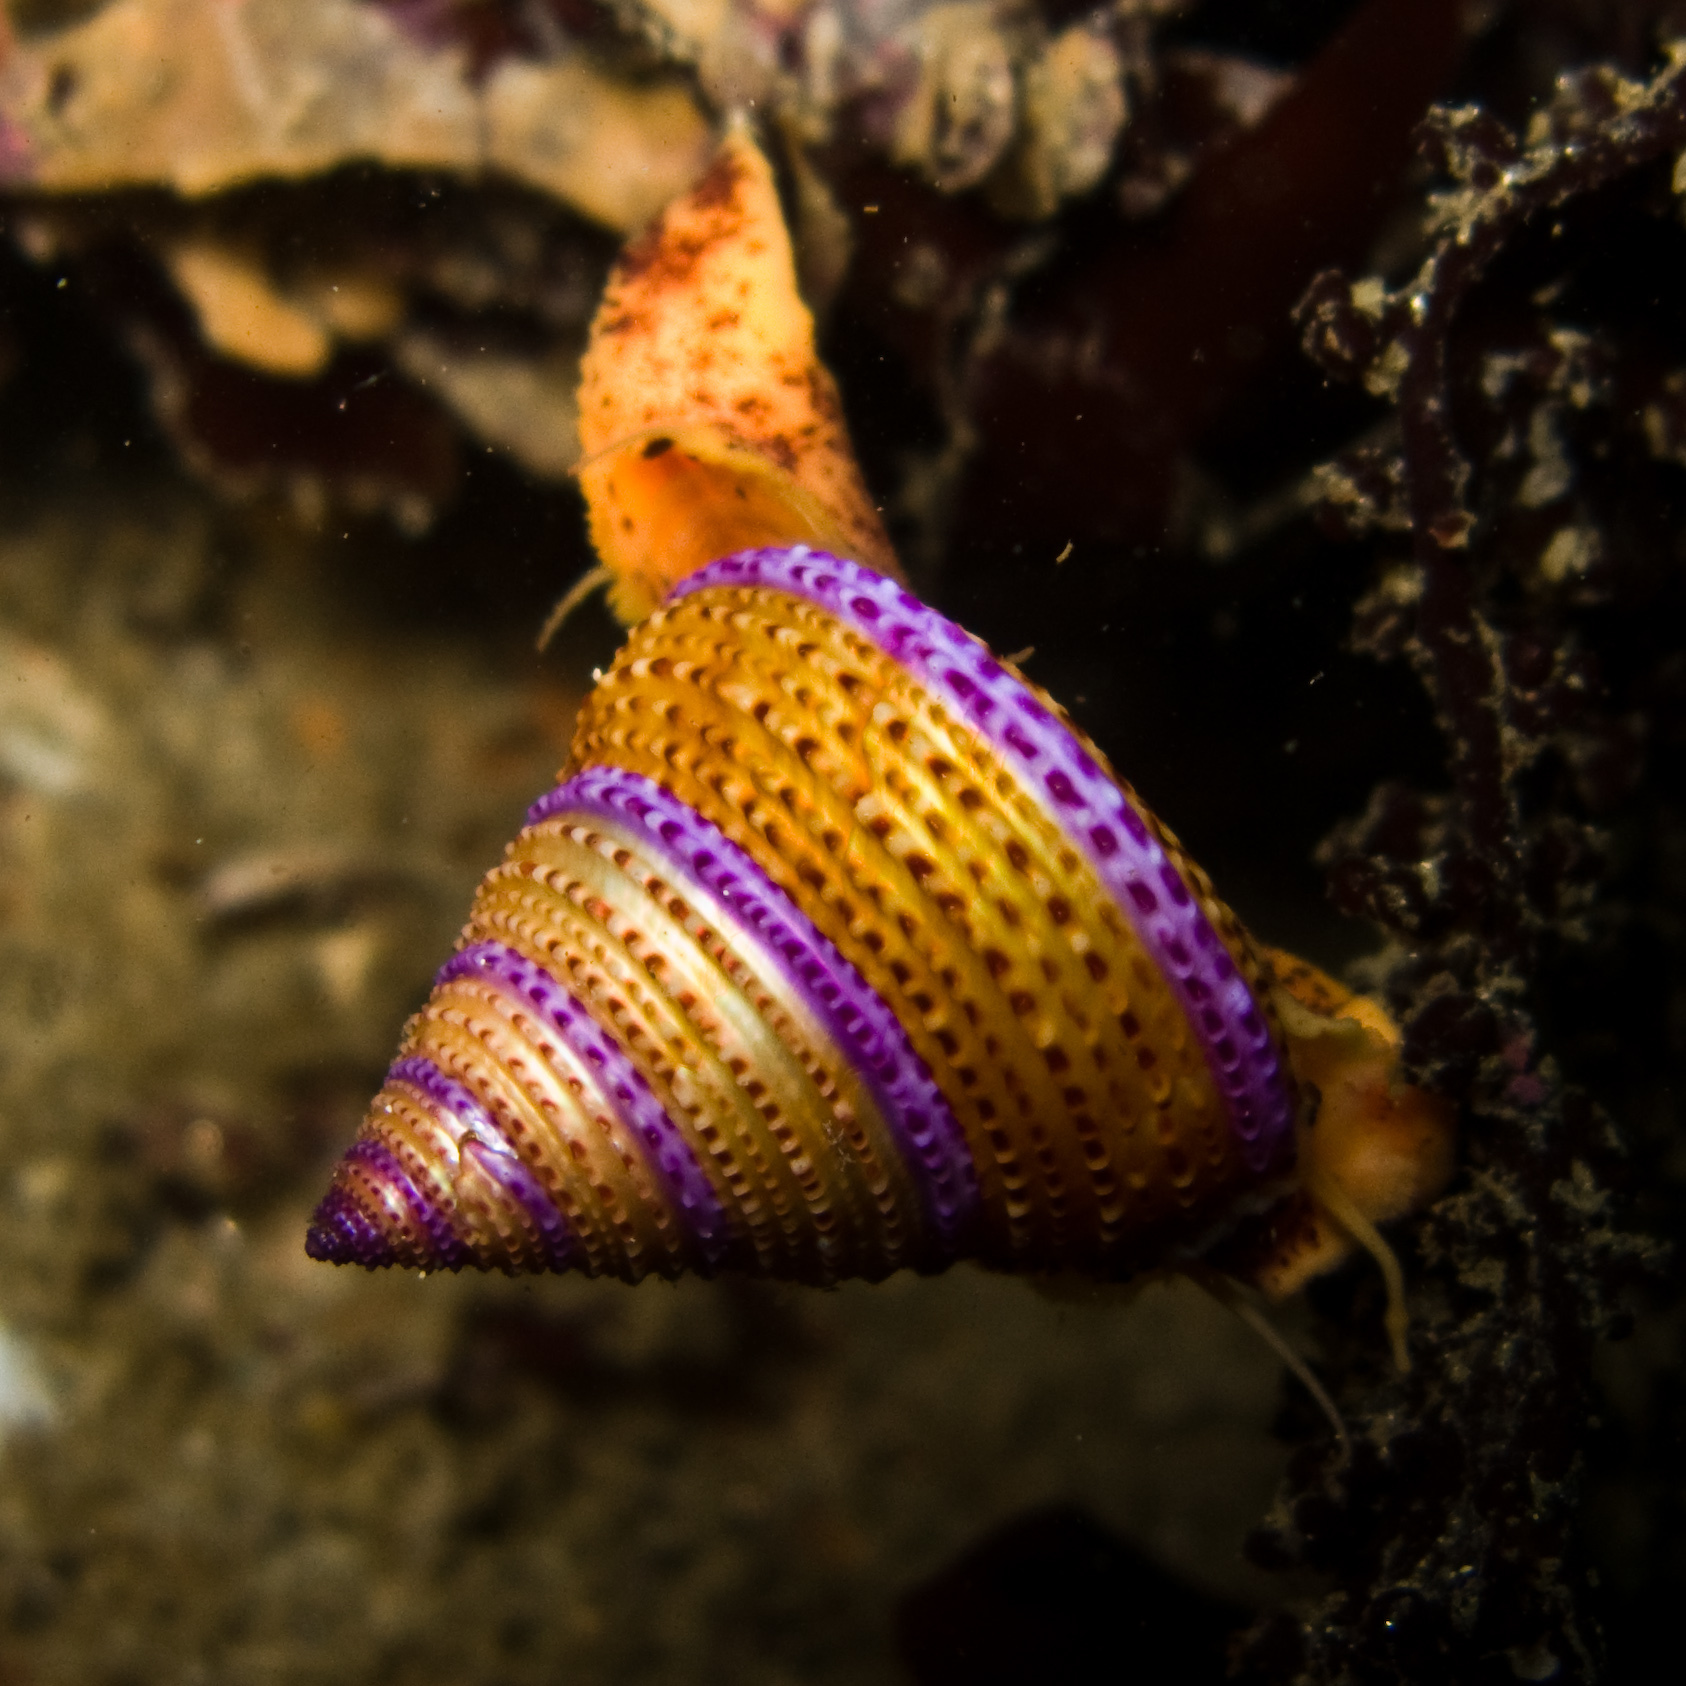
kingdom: Animalia
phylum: Mollusca
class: Gastropoda
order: Trochida
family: Calliostomatidae
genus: Calliostoma
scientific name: Calliostoma annulatum
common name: Blue-ring topsnail
